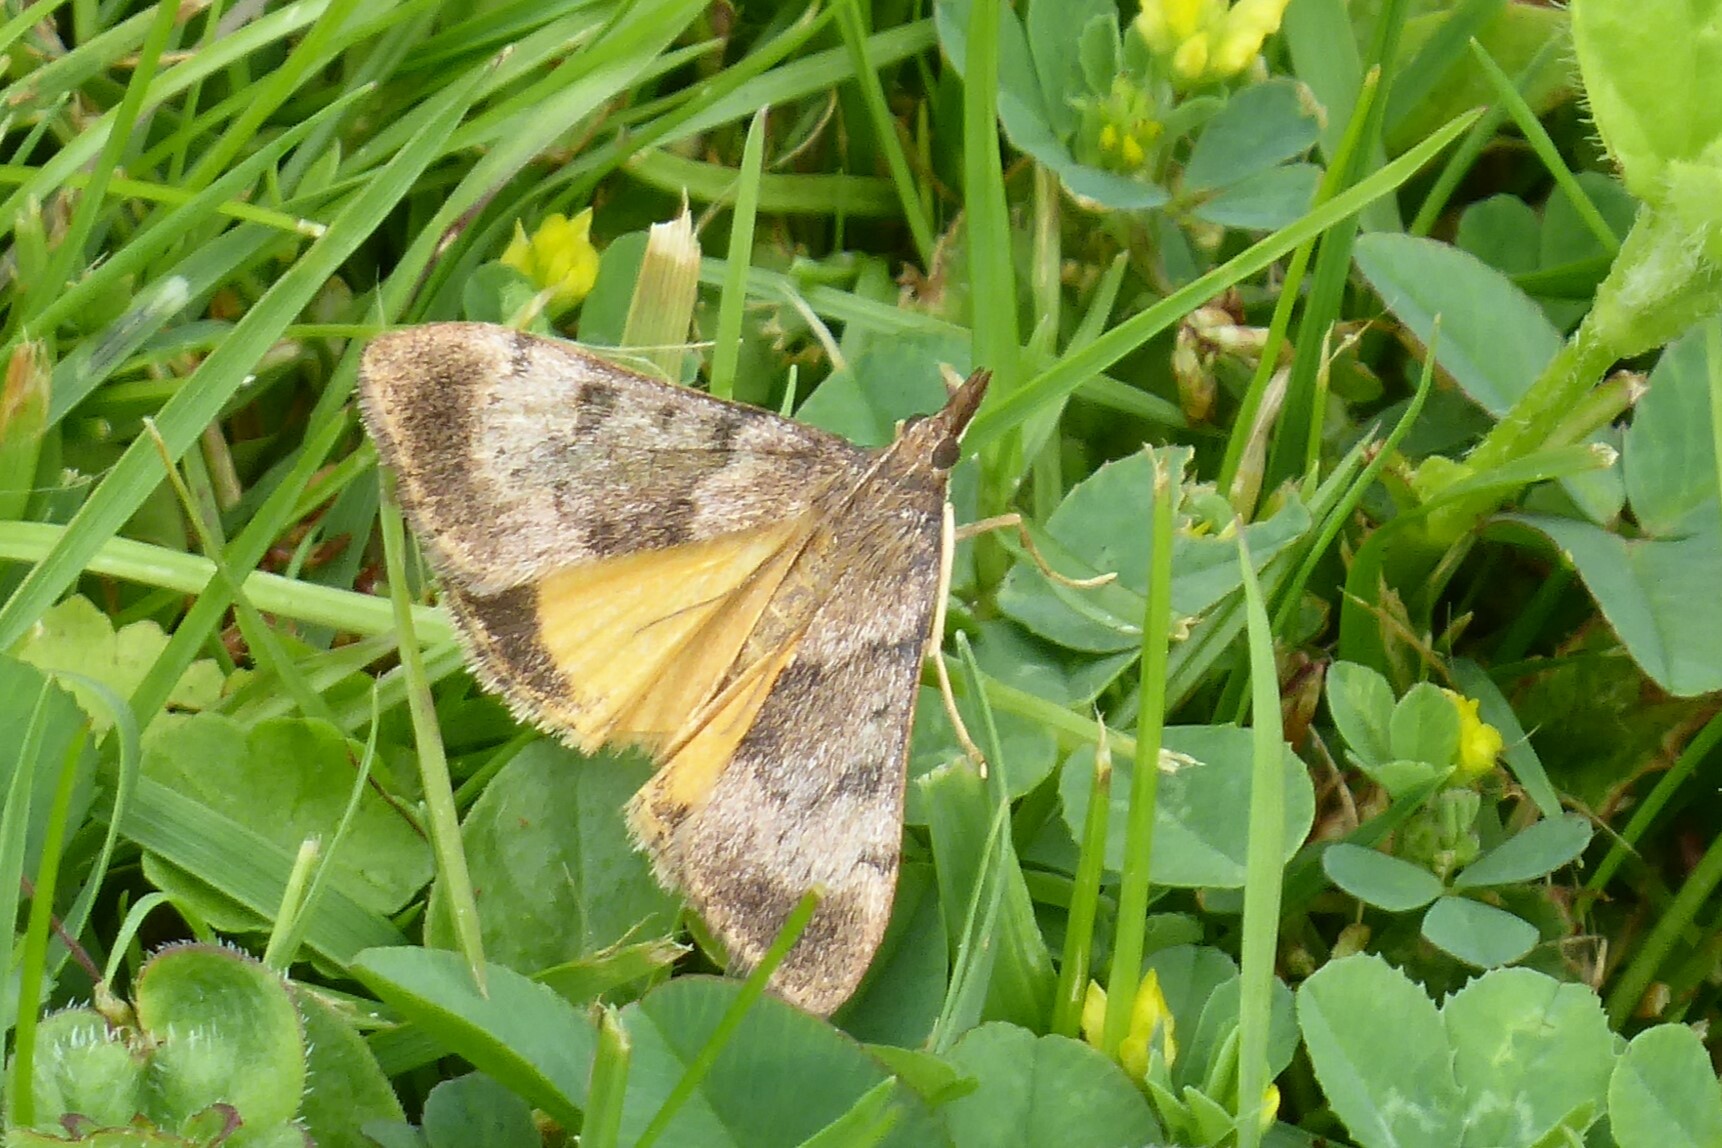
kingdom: Animalia
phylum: Arthropoda
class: Insecta
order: Lepidoptera
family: Crambidae
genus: Uresiphita
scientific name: Uresiphita
